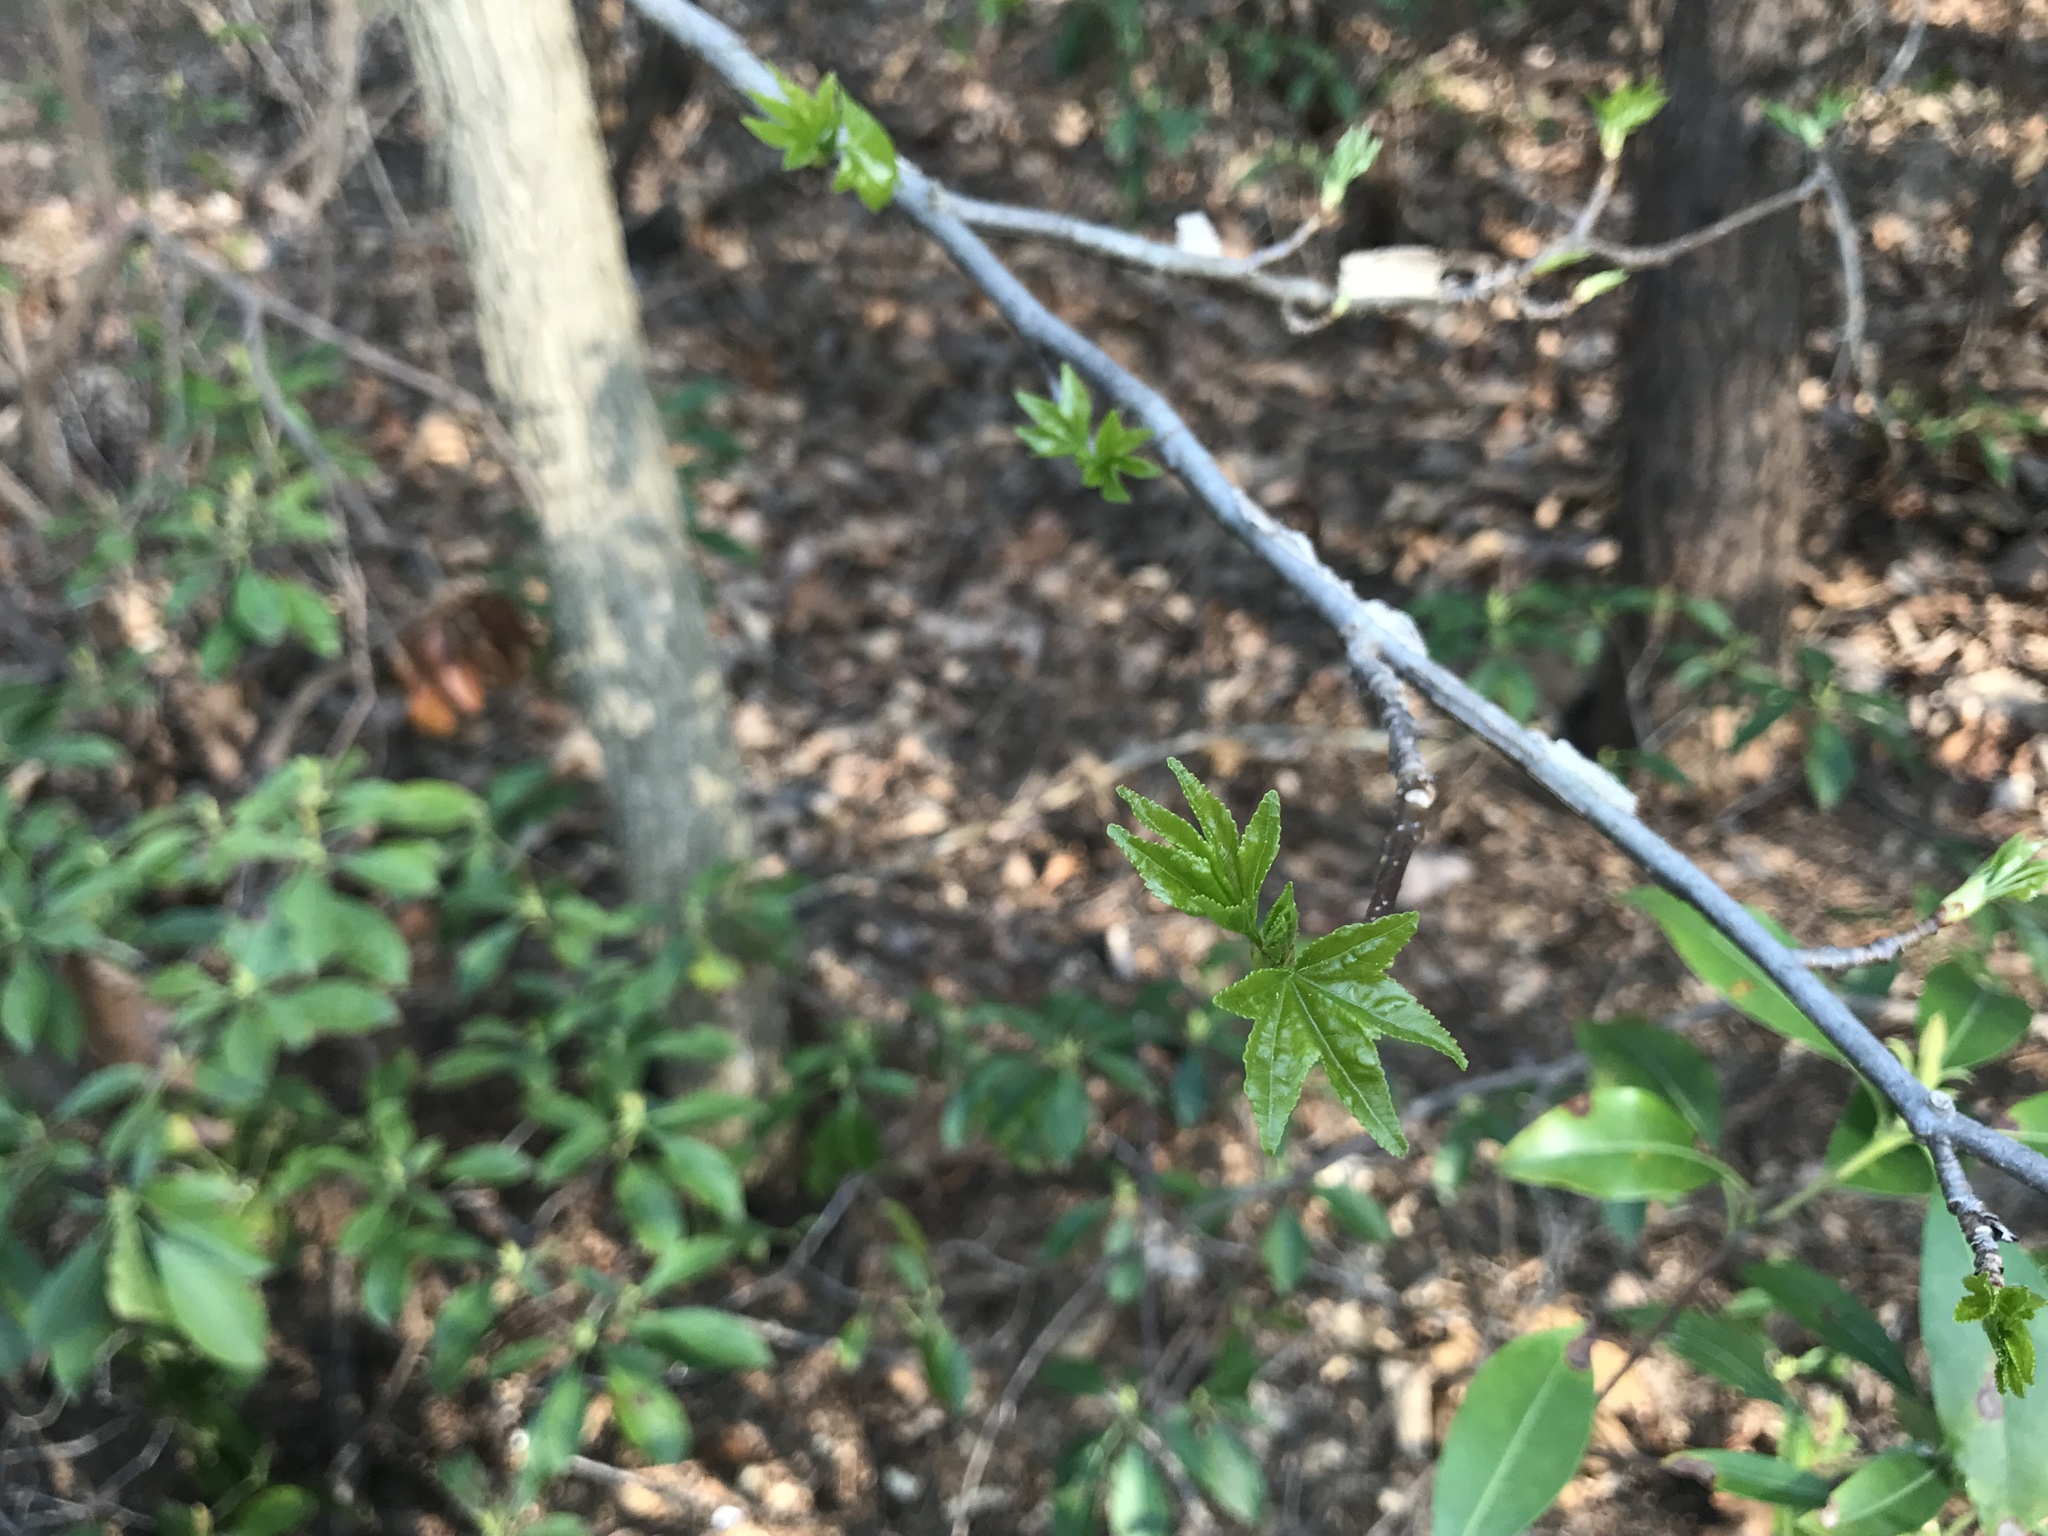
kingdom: Plantae
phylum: Tracheophyta
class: Magnoliopsida
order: Saxifragales
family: Altingiaceae
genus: Liquidambar
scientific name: Liquidambar styraciflua
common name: Sweet gum
